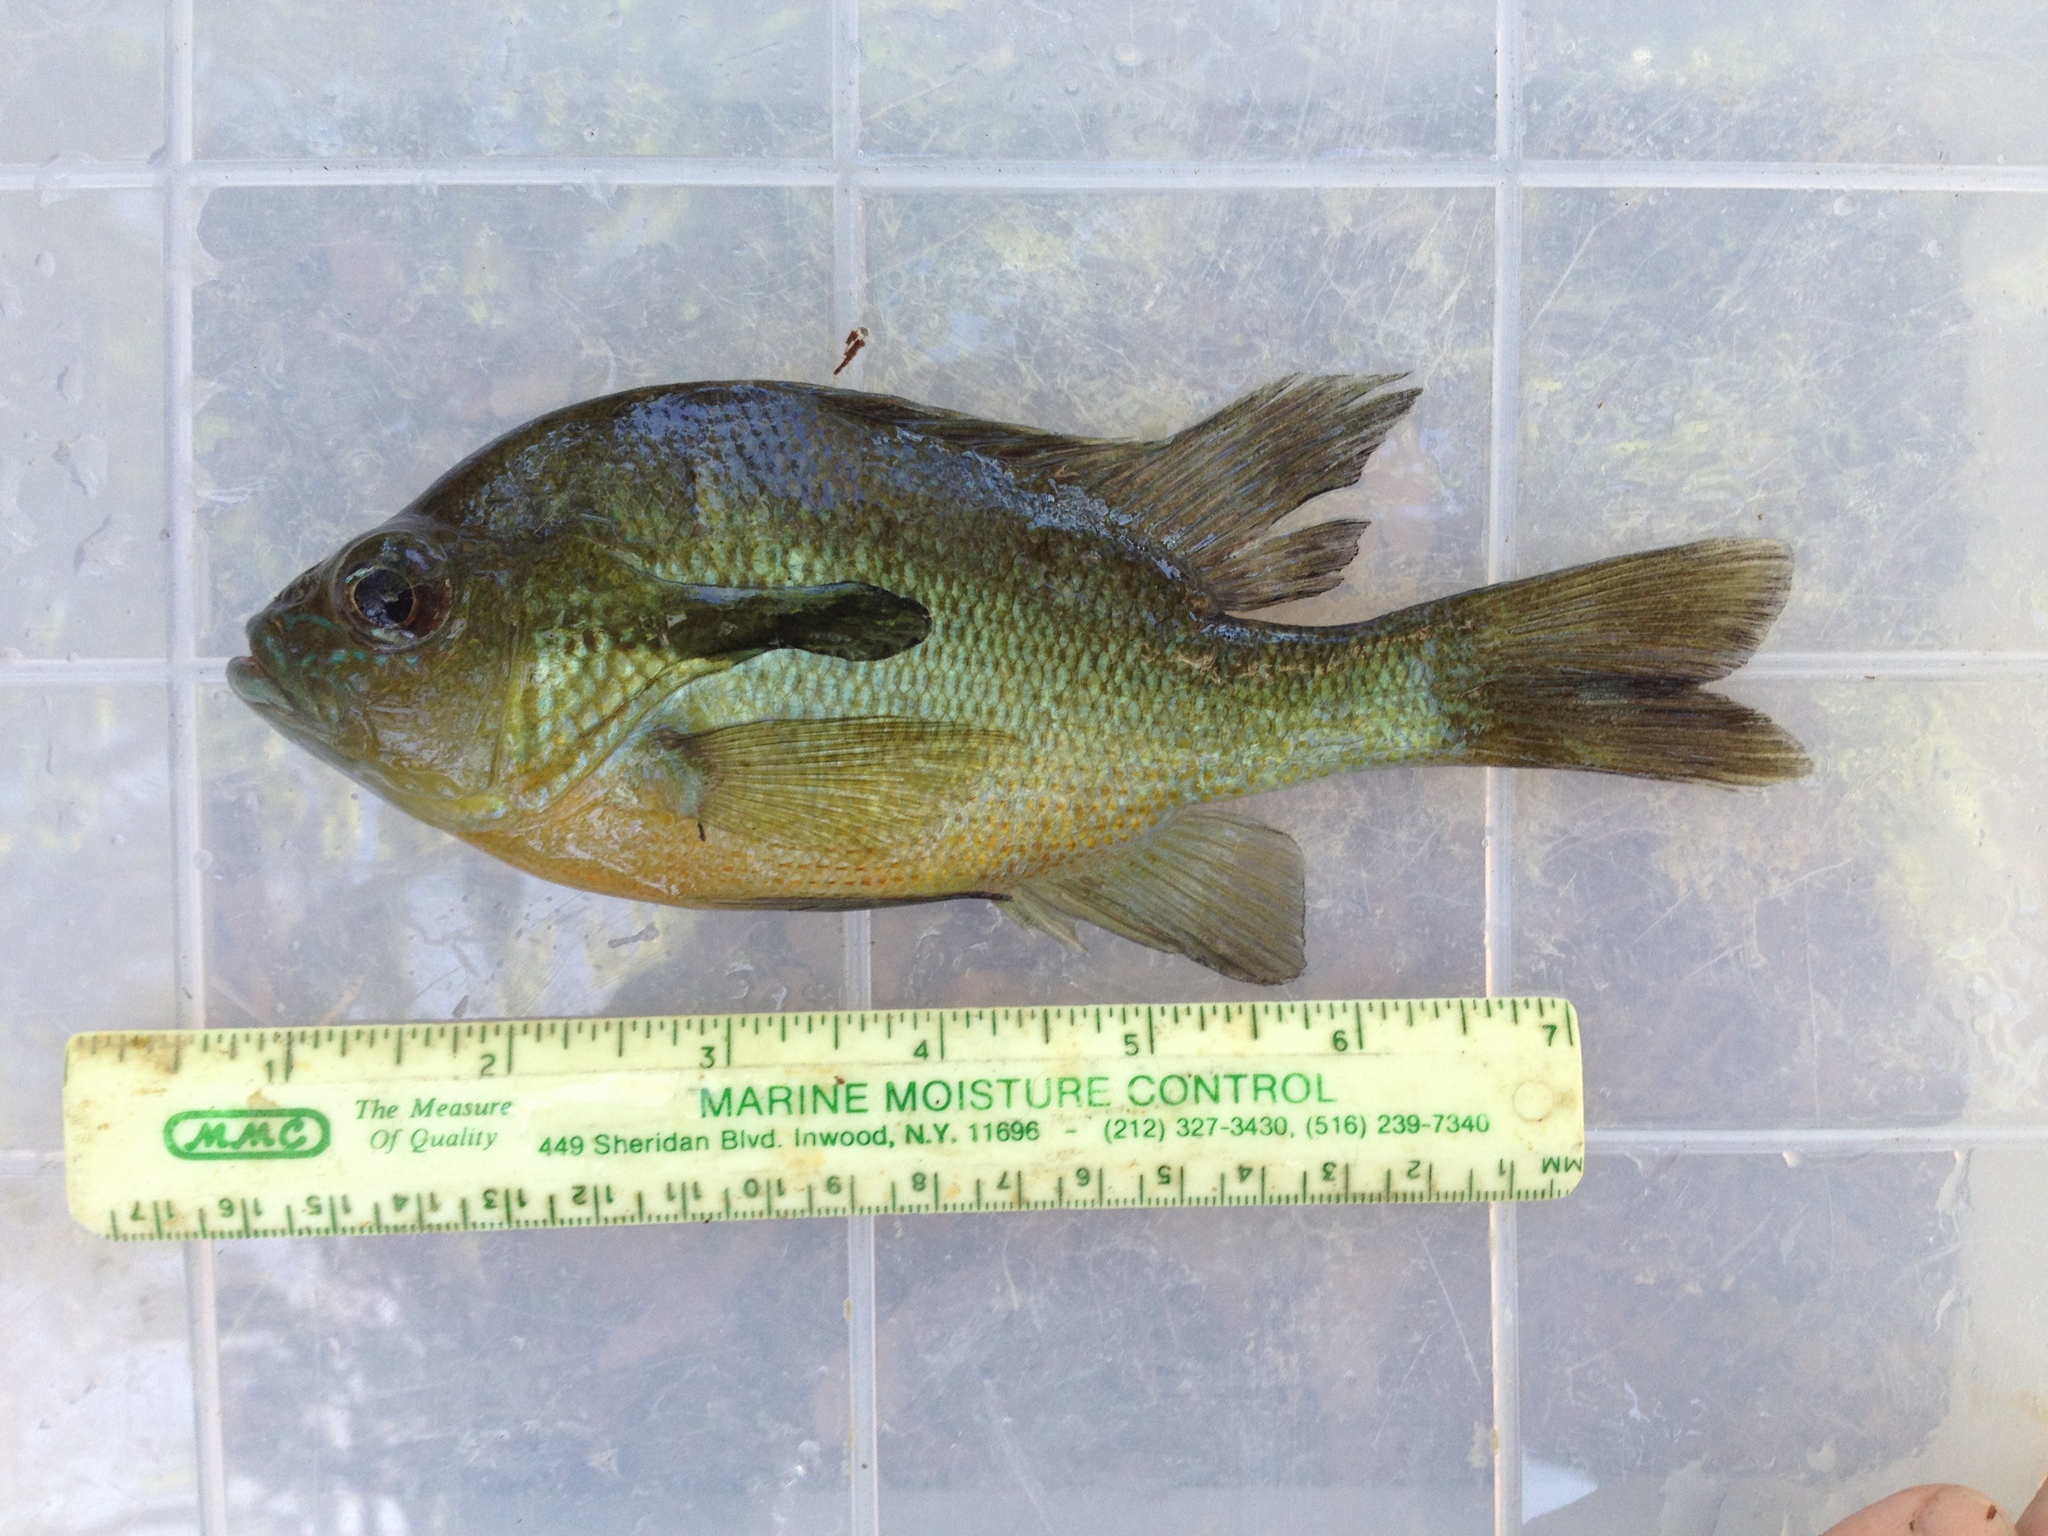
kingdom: Animalia
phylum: Chordata
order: Perciformes
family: Centrarchidae
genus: Lepomis
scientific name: Lepomis auritus
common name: Redbreast sunfish
